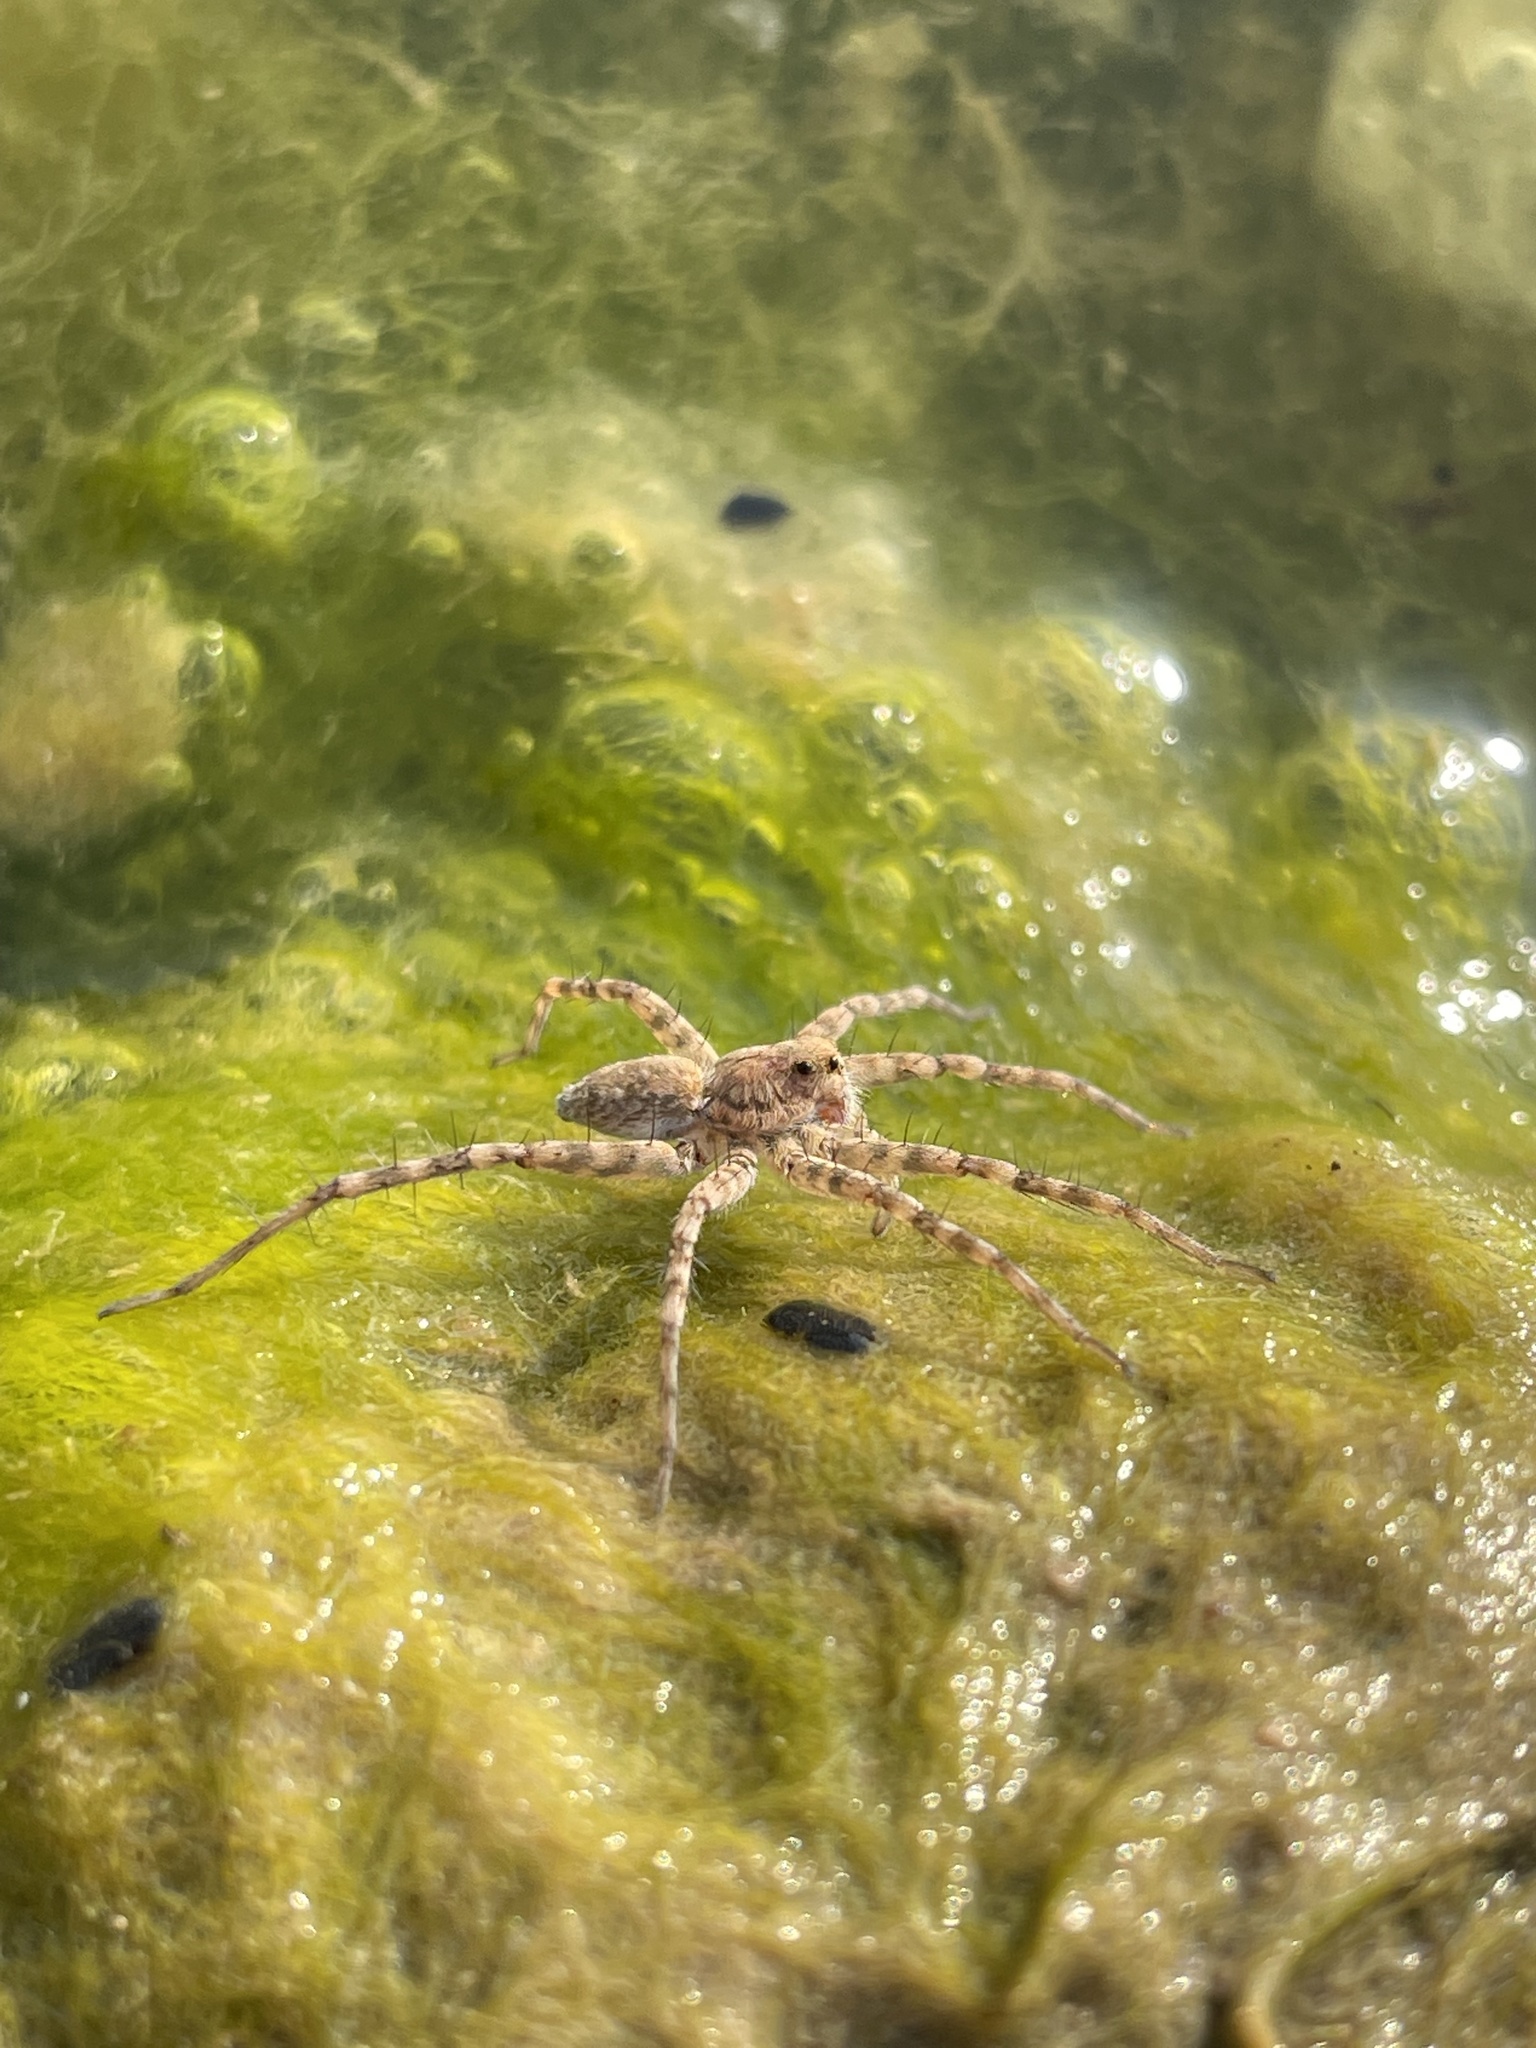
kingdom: Animalia
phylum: Arthropoda
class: Arachnida
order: Araneae
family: Lycosidae
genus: Pardosa
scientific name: Pardosa mercurialis
